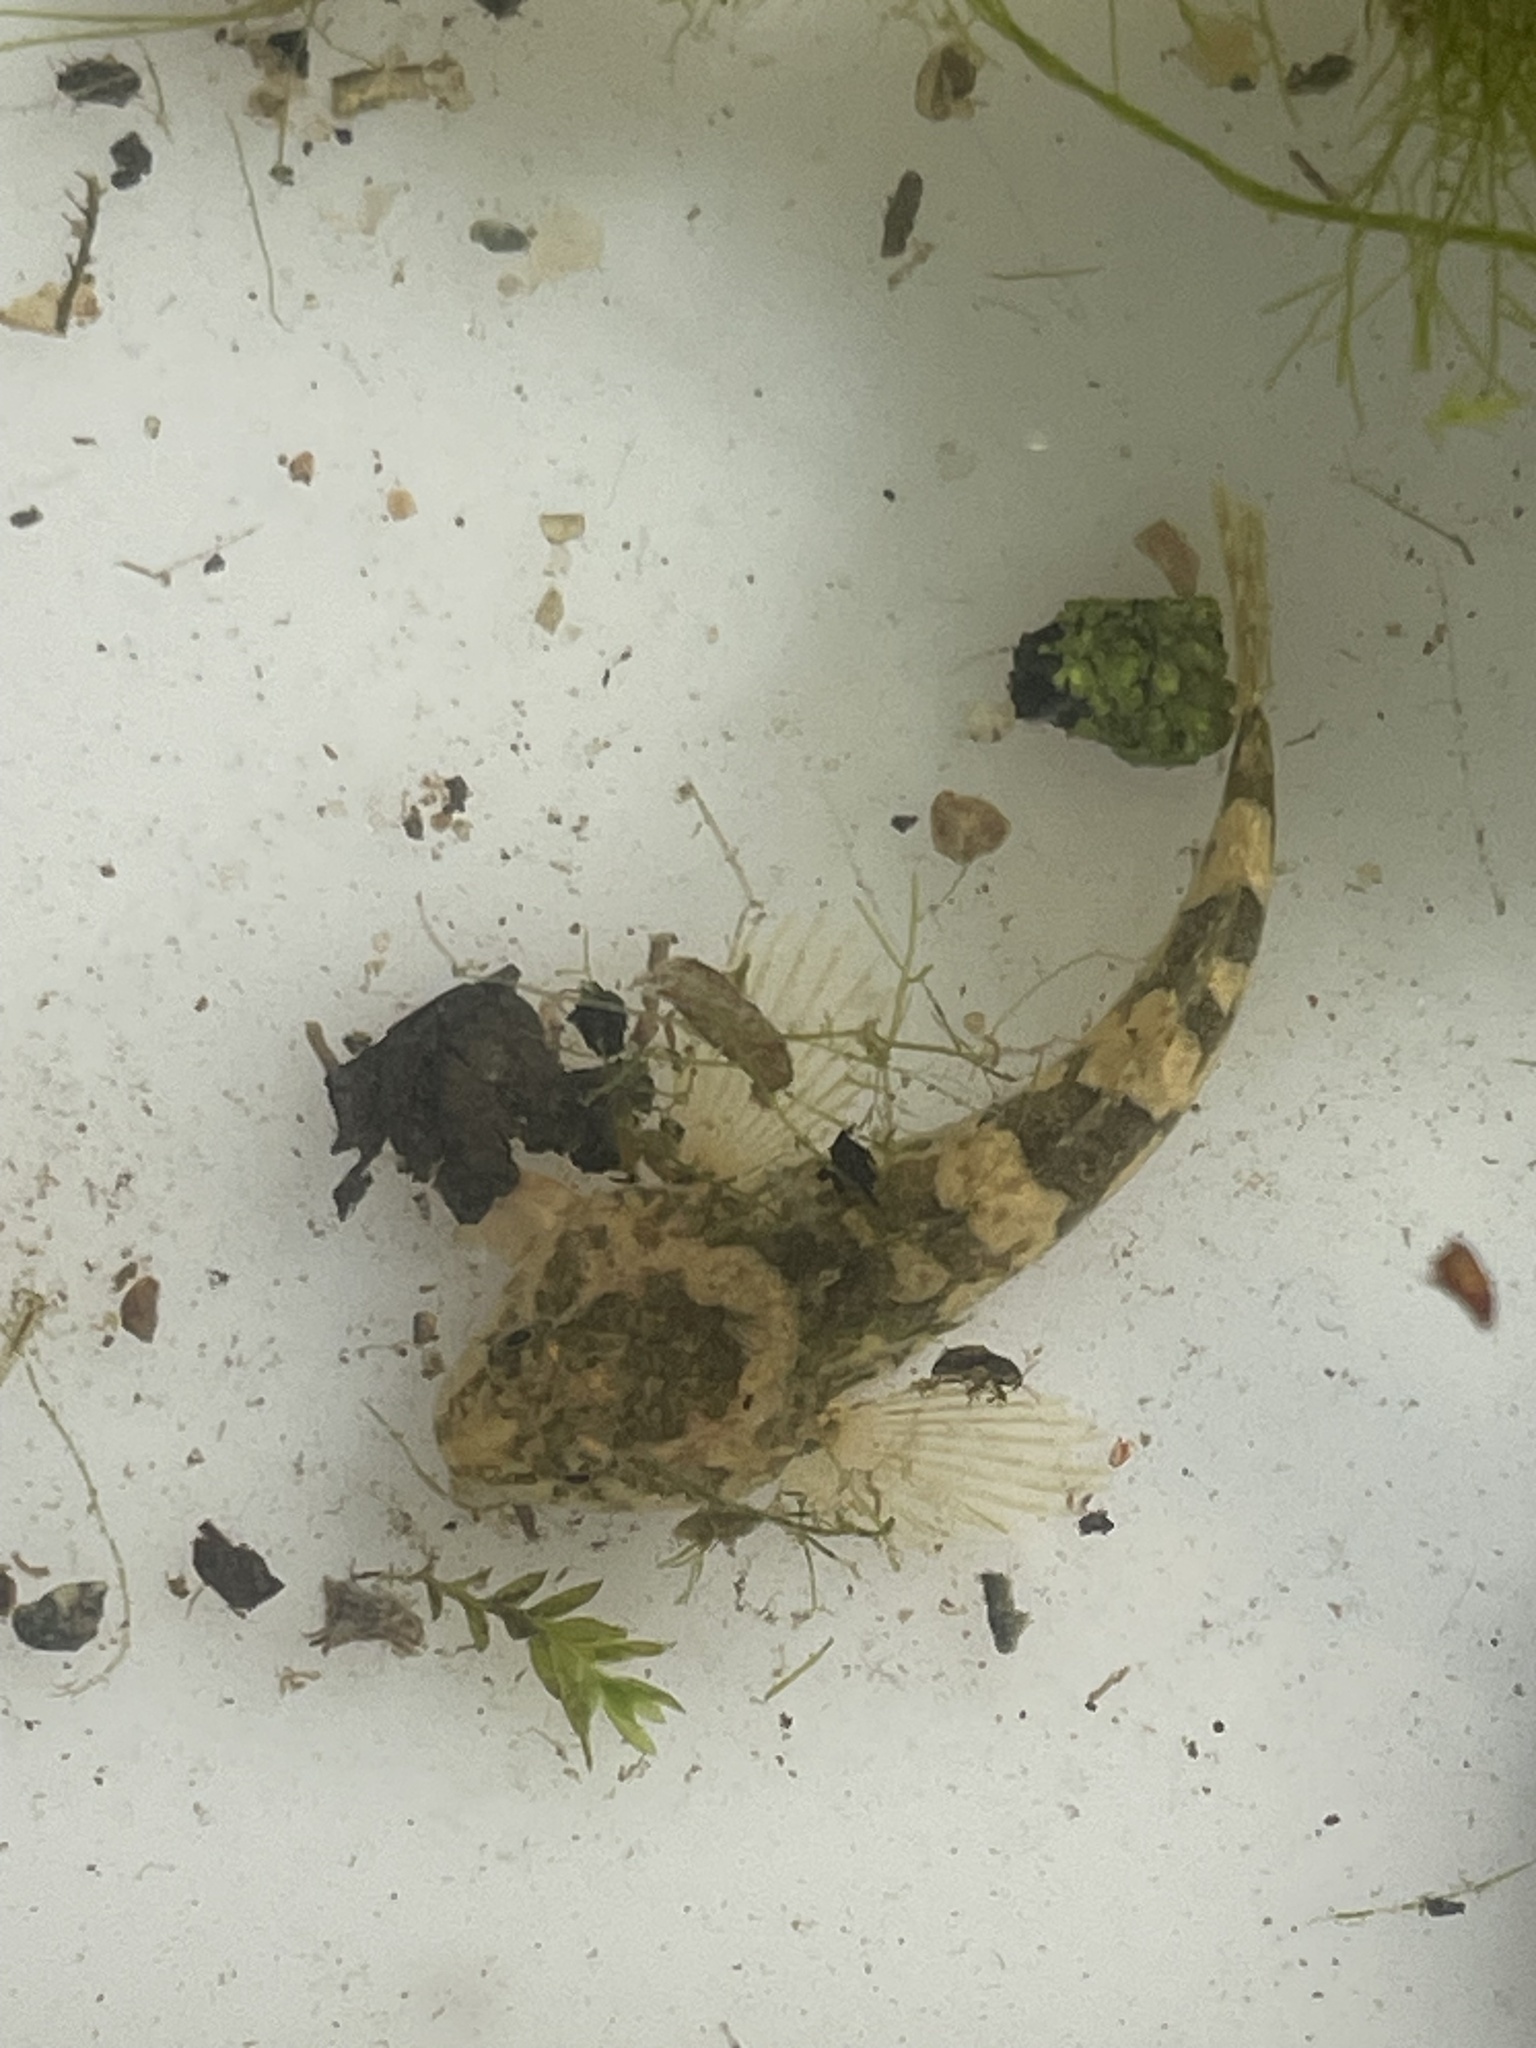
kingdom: Animalia
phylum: Chordata
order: Scorpaeniformes
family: Cottidae
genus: Cottus
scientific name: Cottus perifretum
